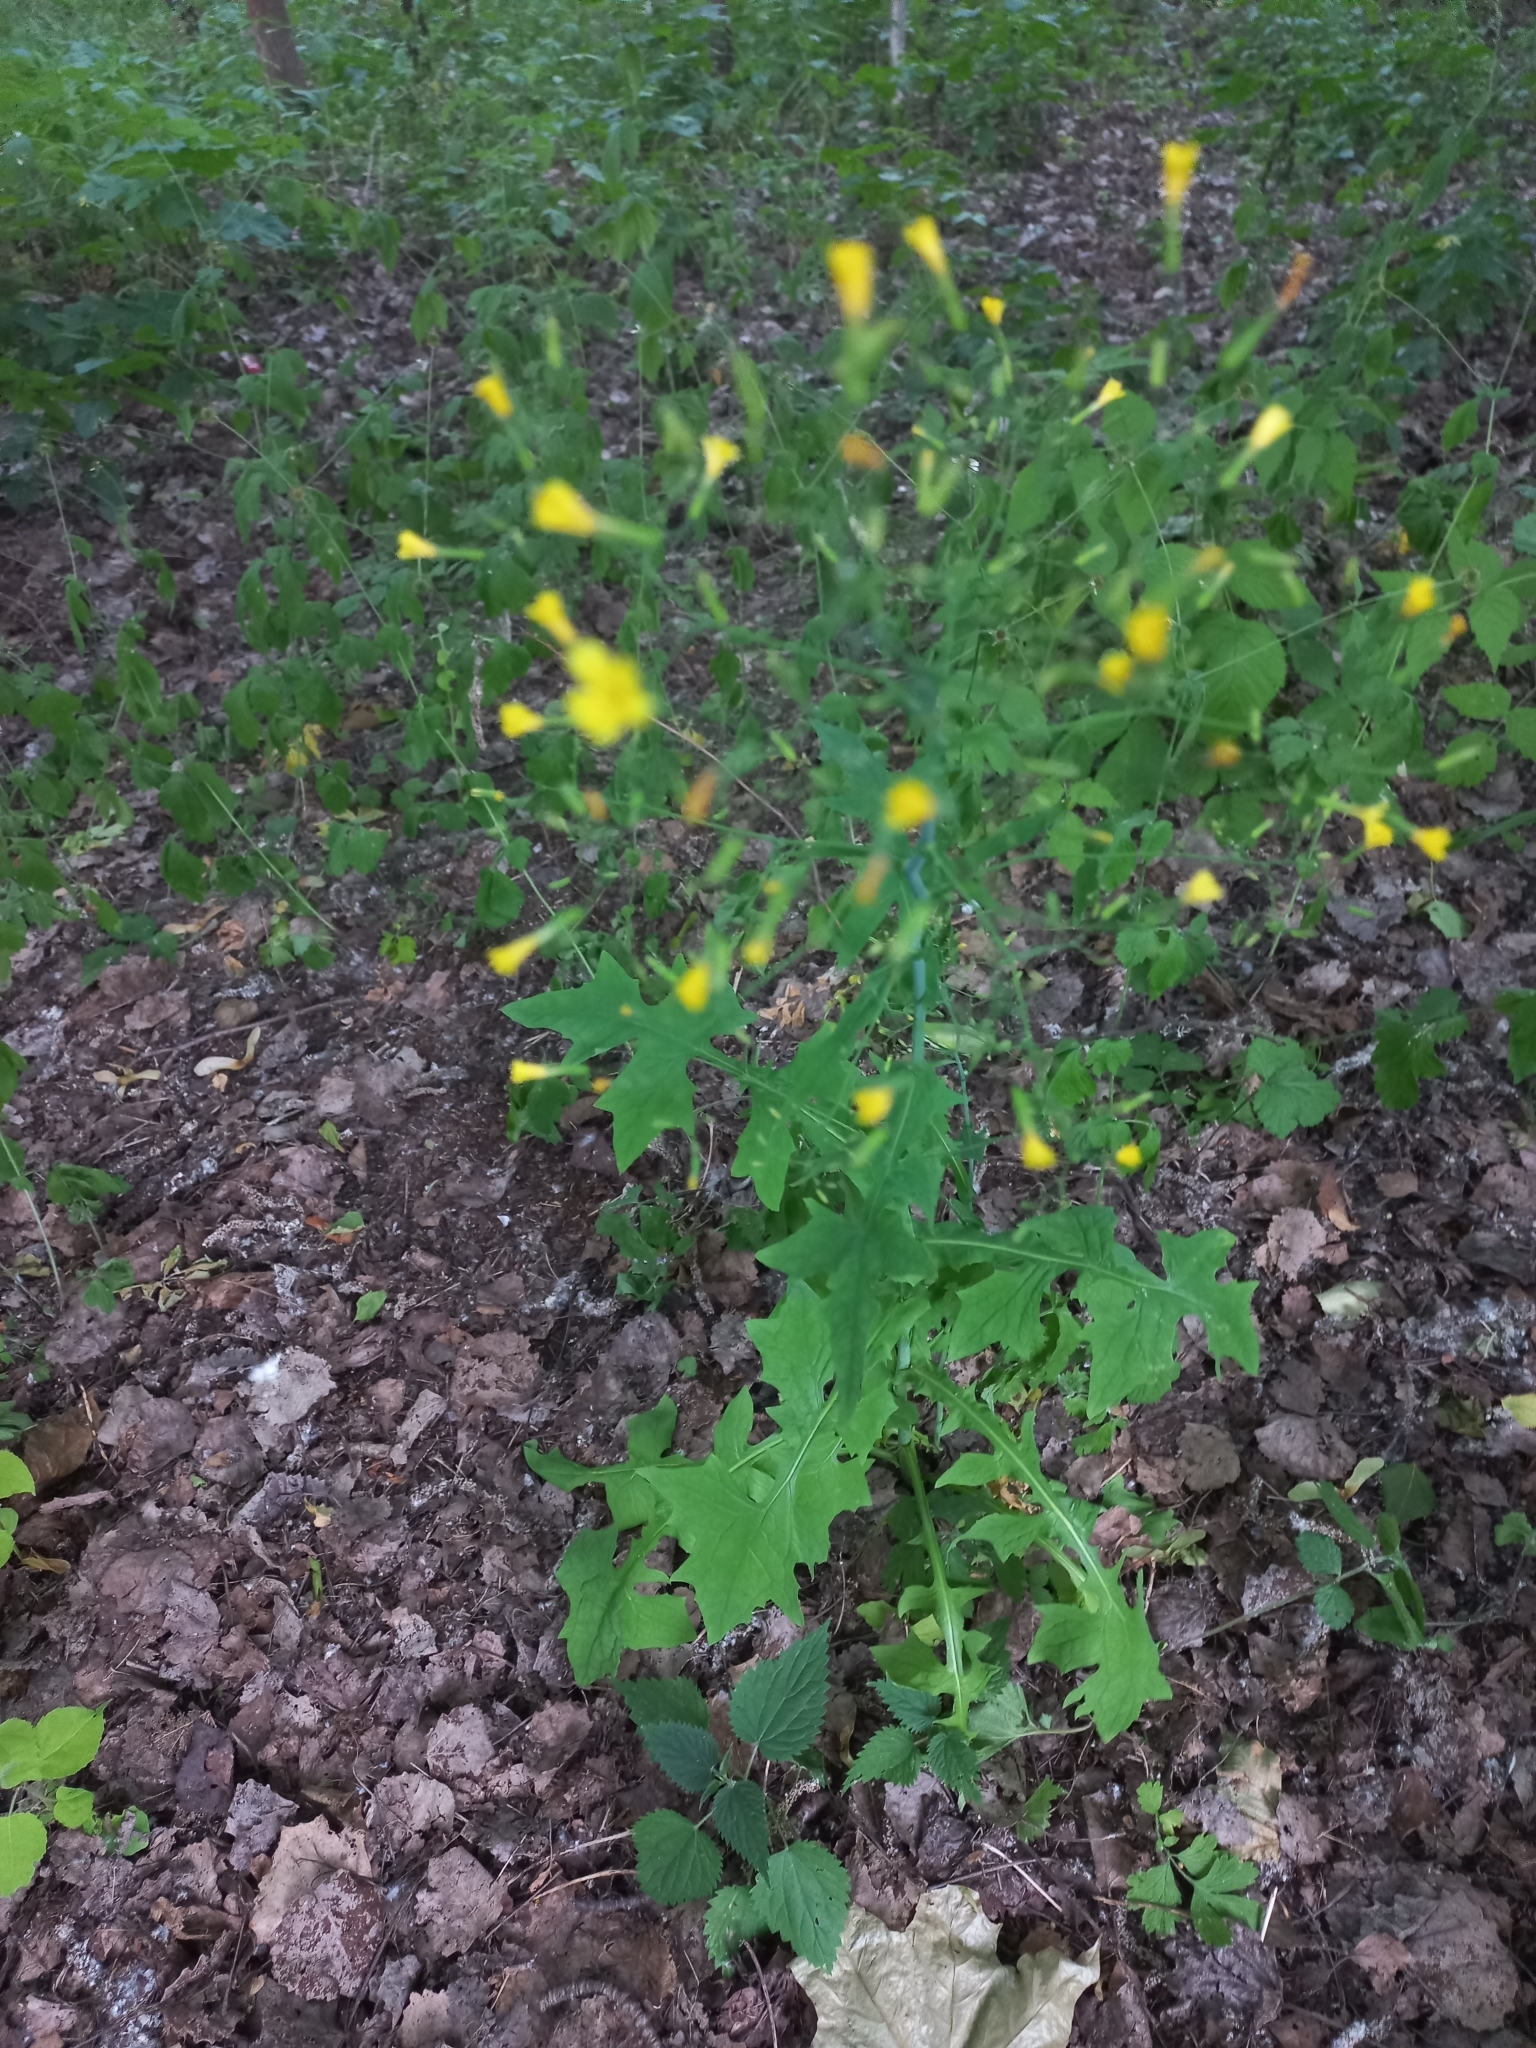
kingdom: Plantae
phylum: Tracheophyta
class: Magnoliopsida
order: Asterales
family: Asteraceae
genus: Mycelis
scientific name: Mycelis muralis
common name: Wall lettuce
